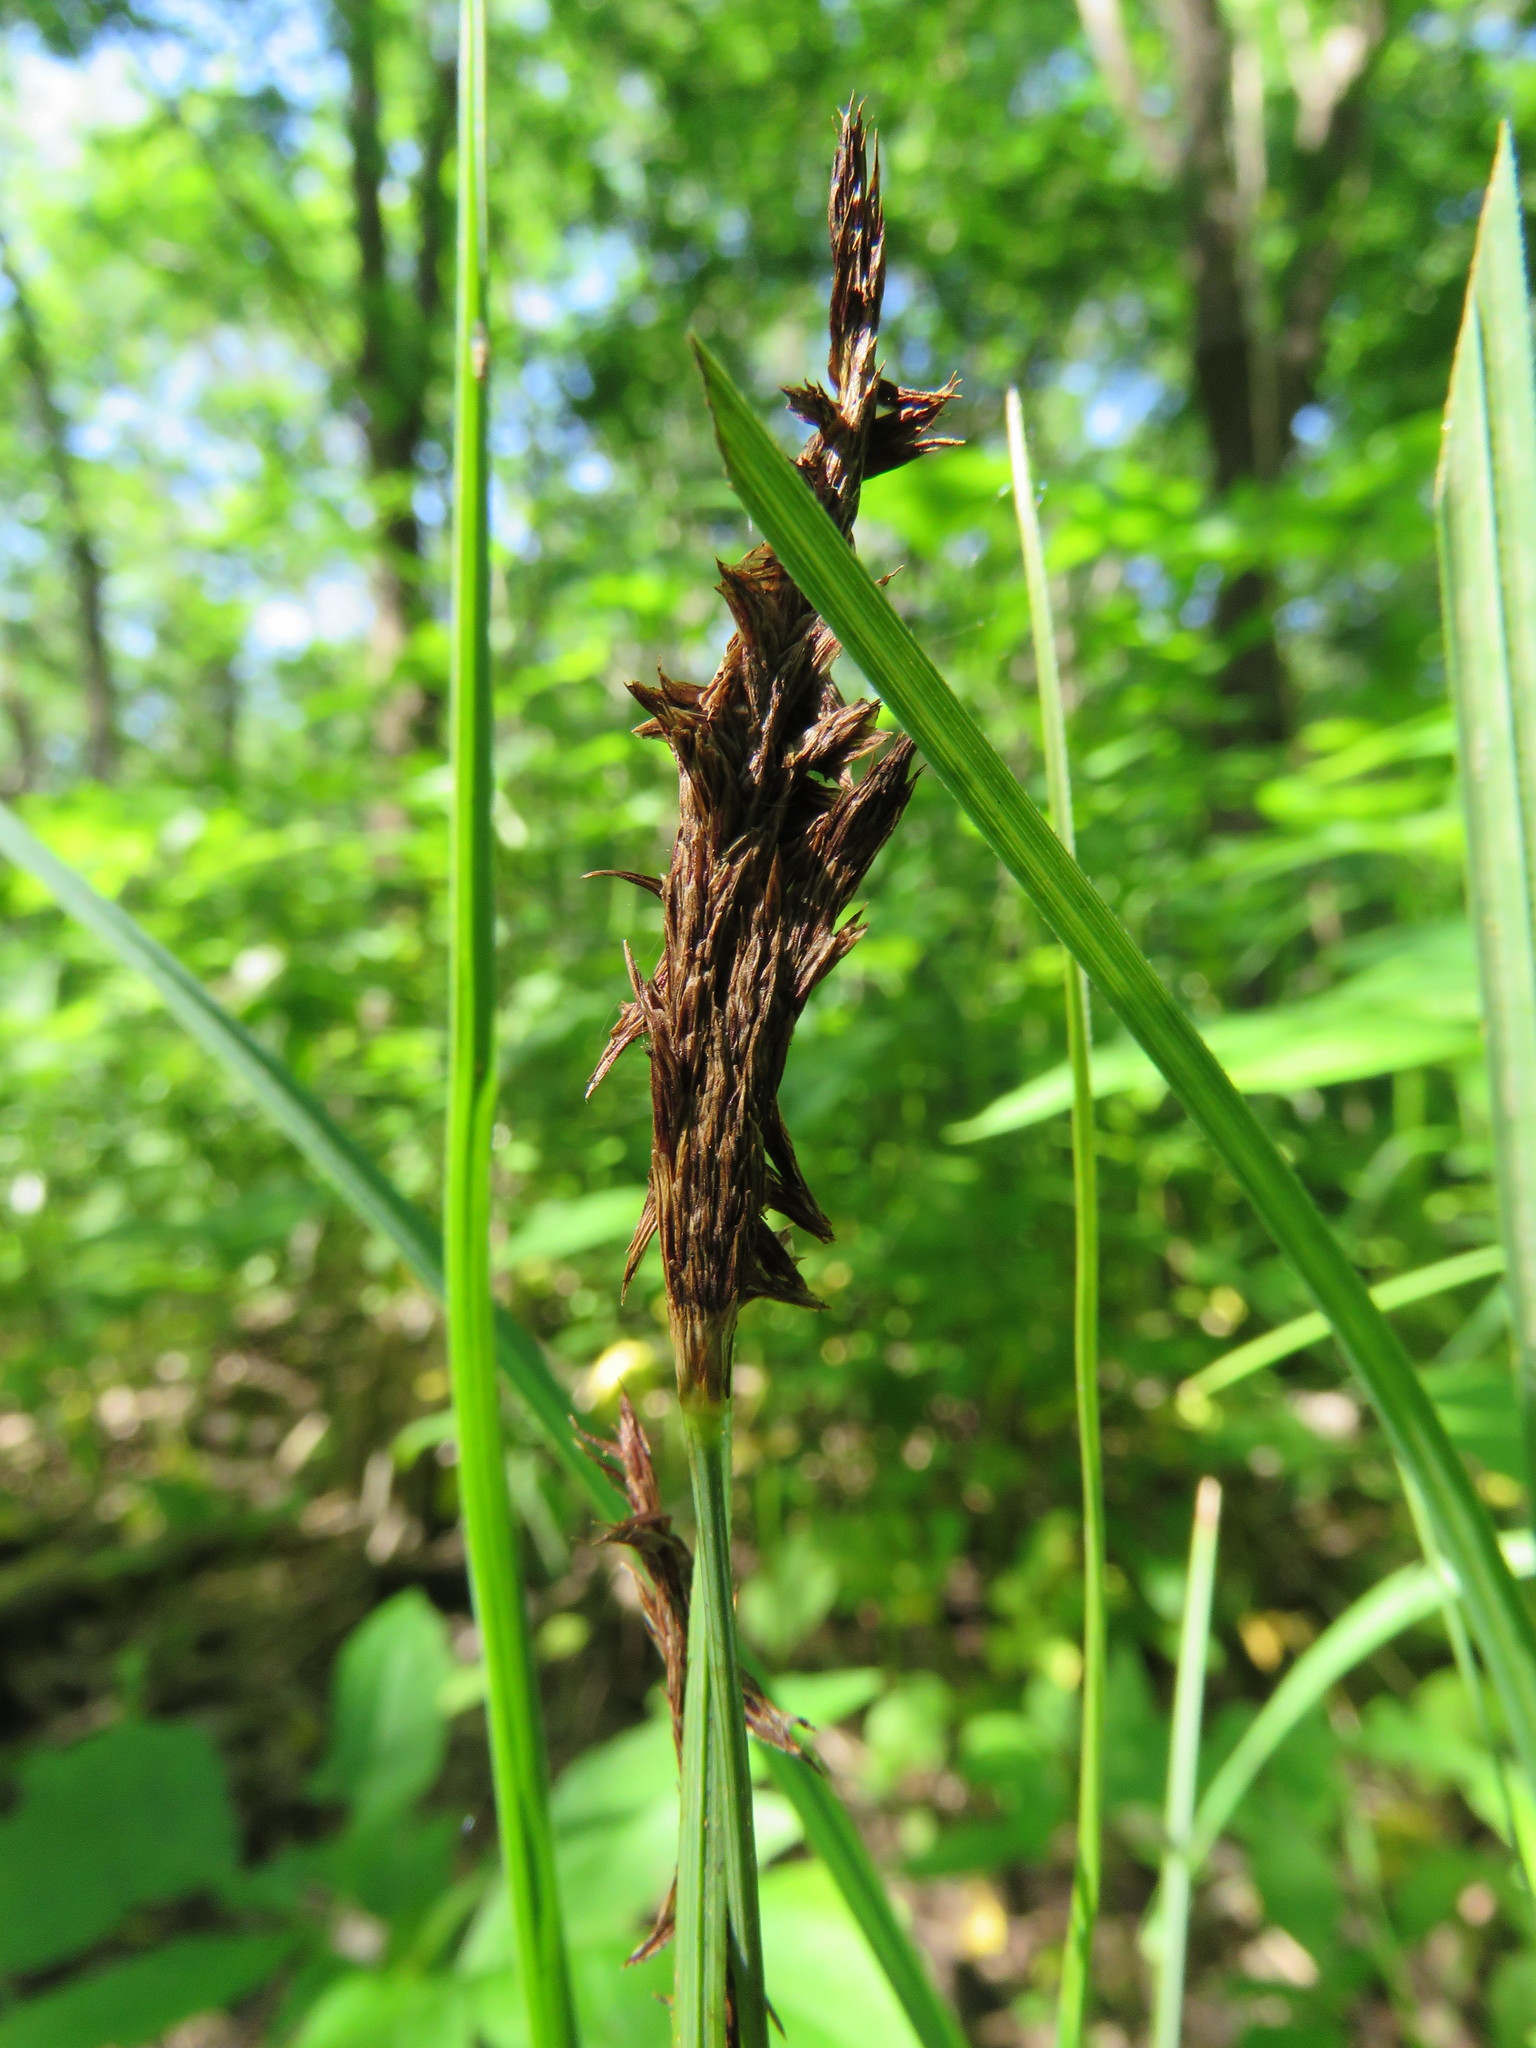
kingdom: Plantae
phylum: Tracheophyta
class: Liliopsida
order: Poales
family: Cyperaceae
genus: Carex
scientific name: Carex hyalinolepis
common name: Shoreline sedge
